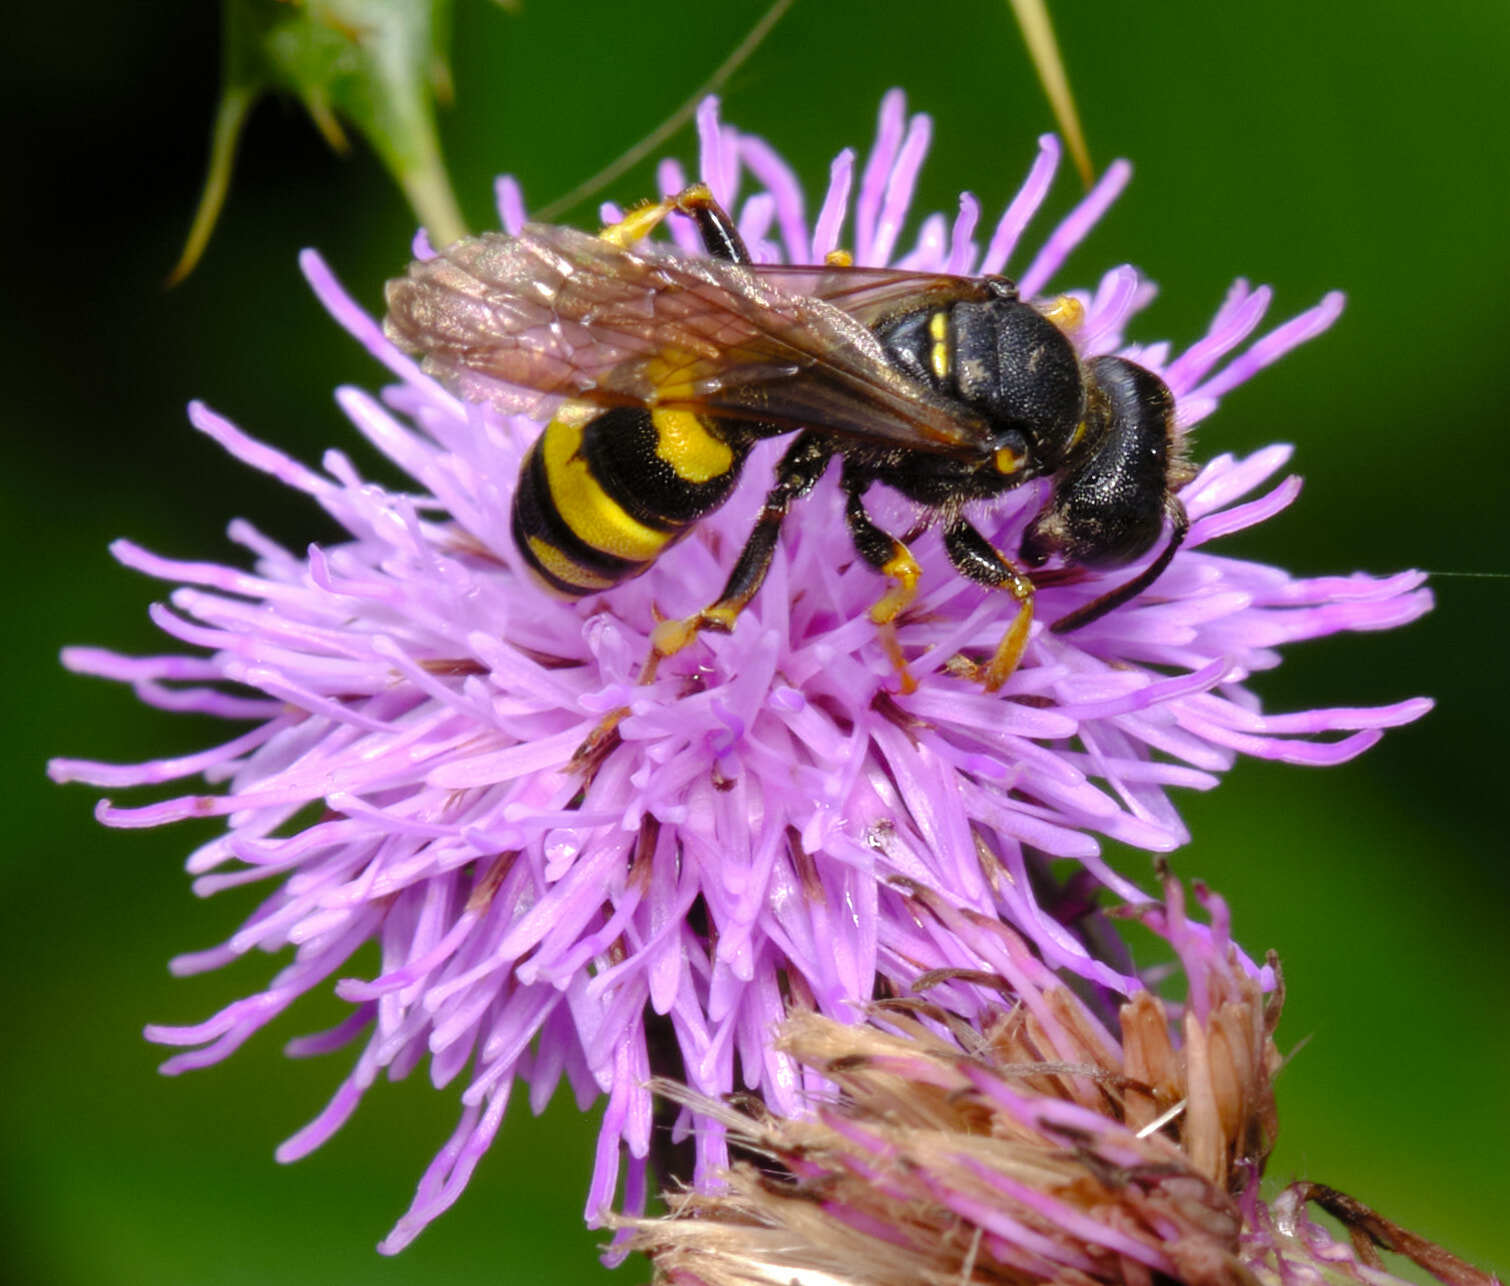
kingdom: Animalia
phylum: Arthropoda
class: Insecta
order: Hymenoptera
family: Crabronidae
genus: Cerceris
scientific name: Cerceris rybyensis
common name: Ornate tailed digger wasp
